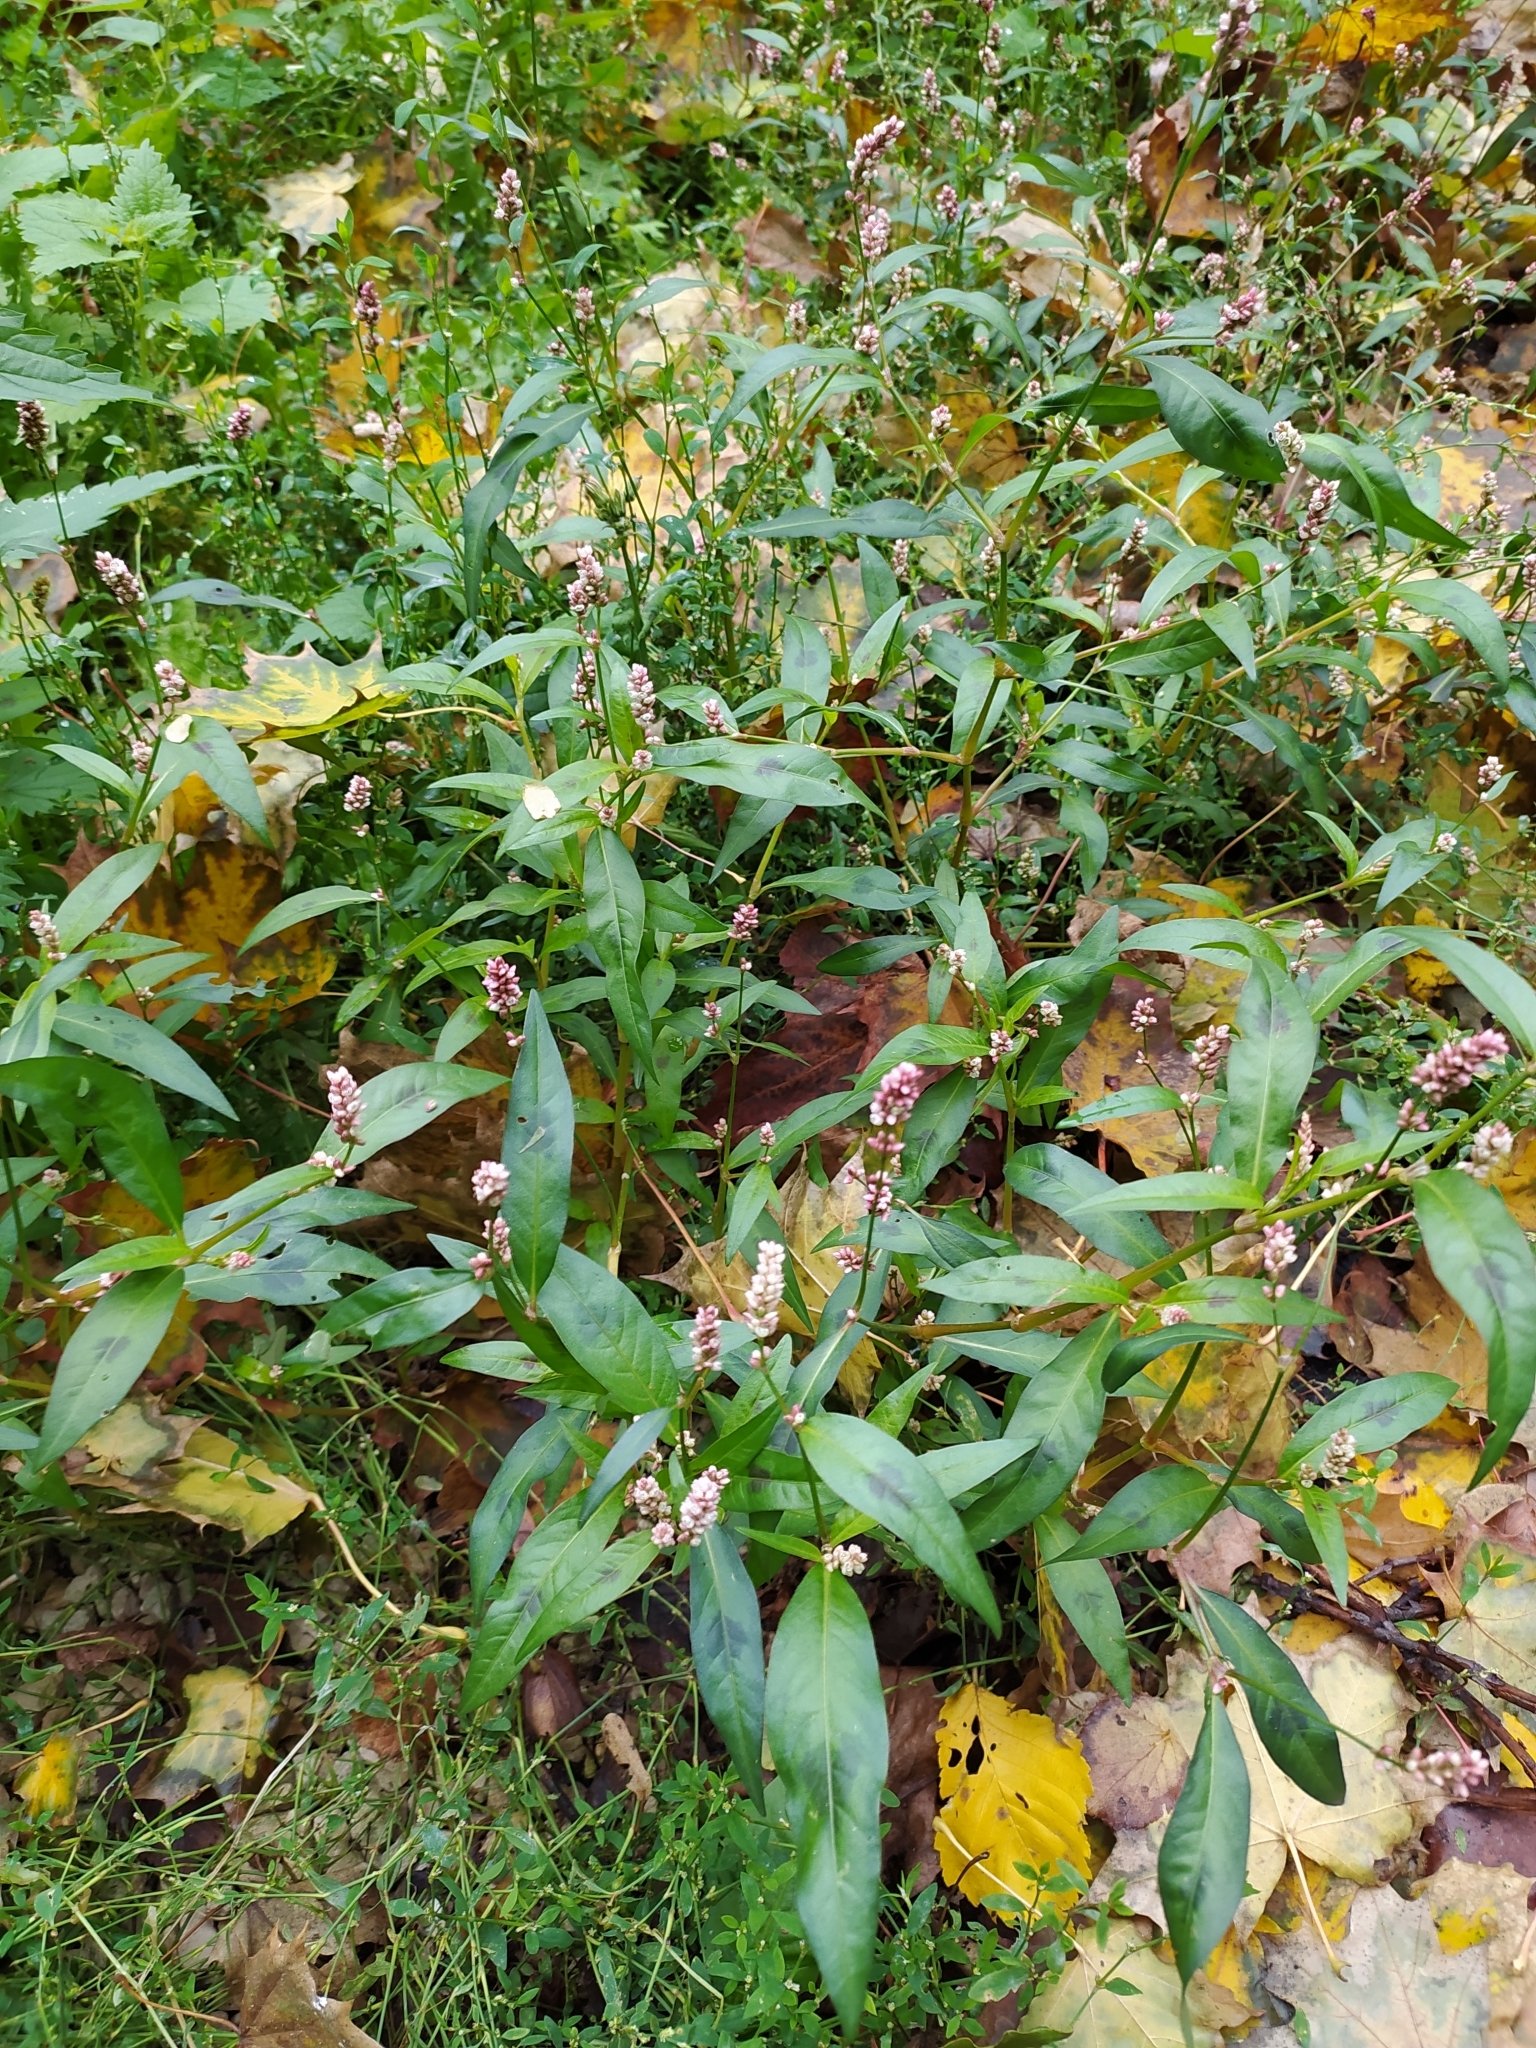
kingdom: Plantae
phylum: Tracheophyta
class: Magnoliopsida
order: Caryophyllales
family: Polygonaceae
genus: Persicaria
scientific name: Persicaria maculosa
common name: Redshank
